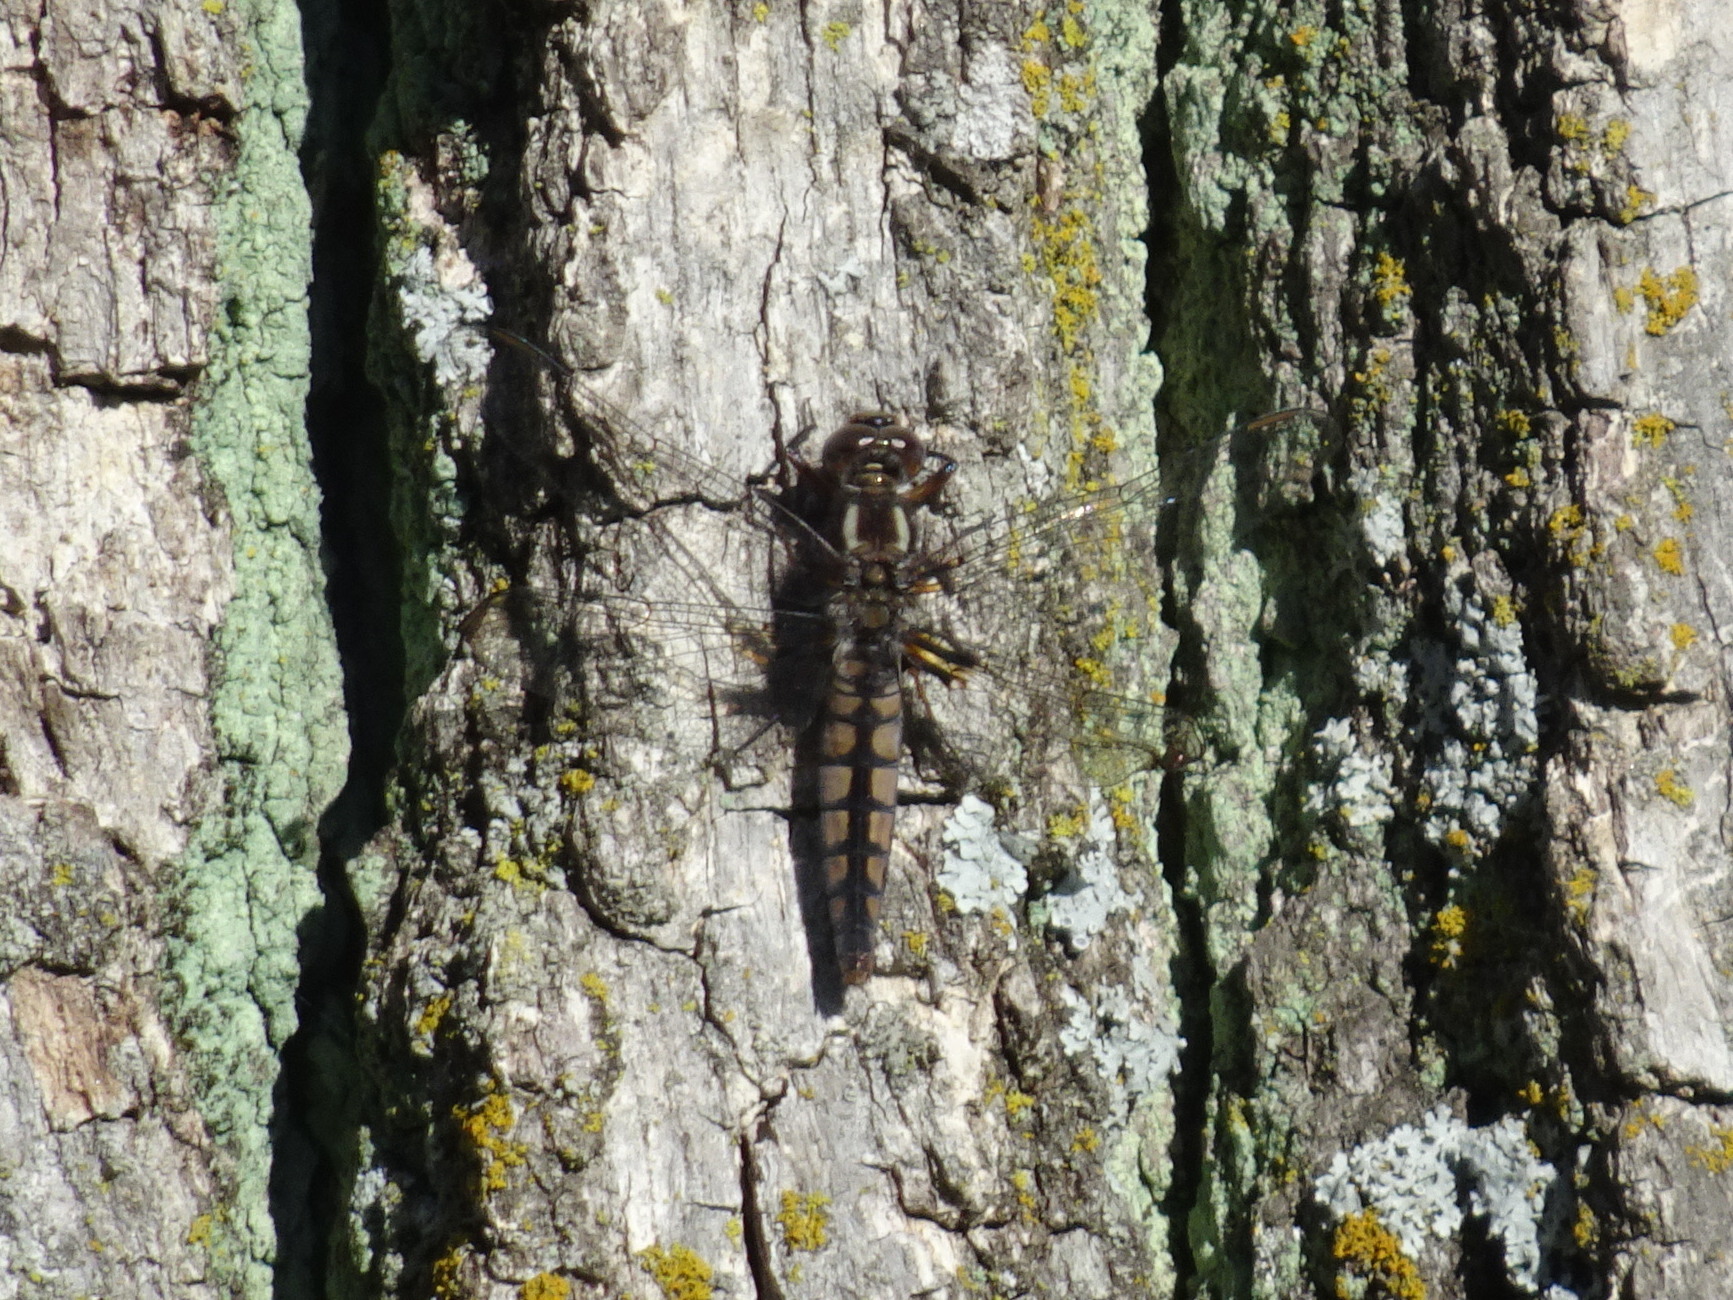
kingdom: Animalia
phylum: Arthropoda
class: Insecta
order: Odonata
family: Libellulidae
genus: Ladona
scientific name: Ladona deplanata
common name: Blue corporal
